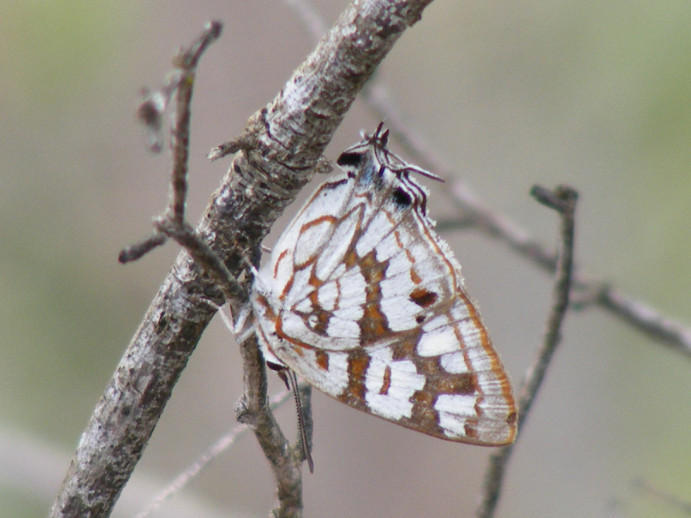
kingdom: Animalia
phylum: Arthropoda
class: Insecta
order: Lepidoptera
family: Lycaenidae
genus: Stugeta
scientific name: Stugeta bowkeri
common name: Bowker's marbled sapphire
